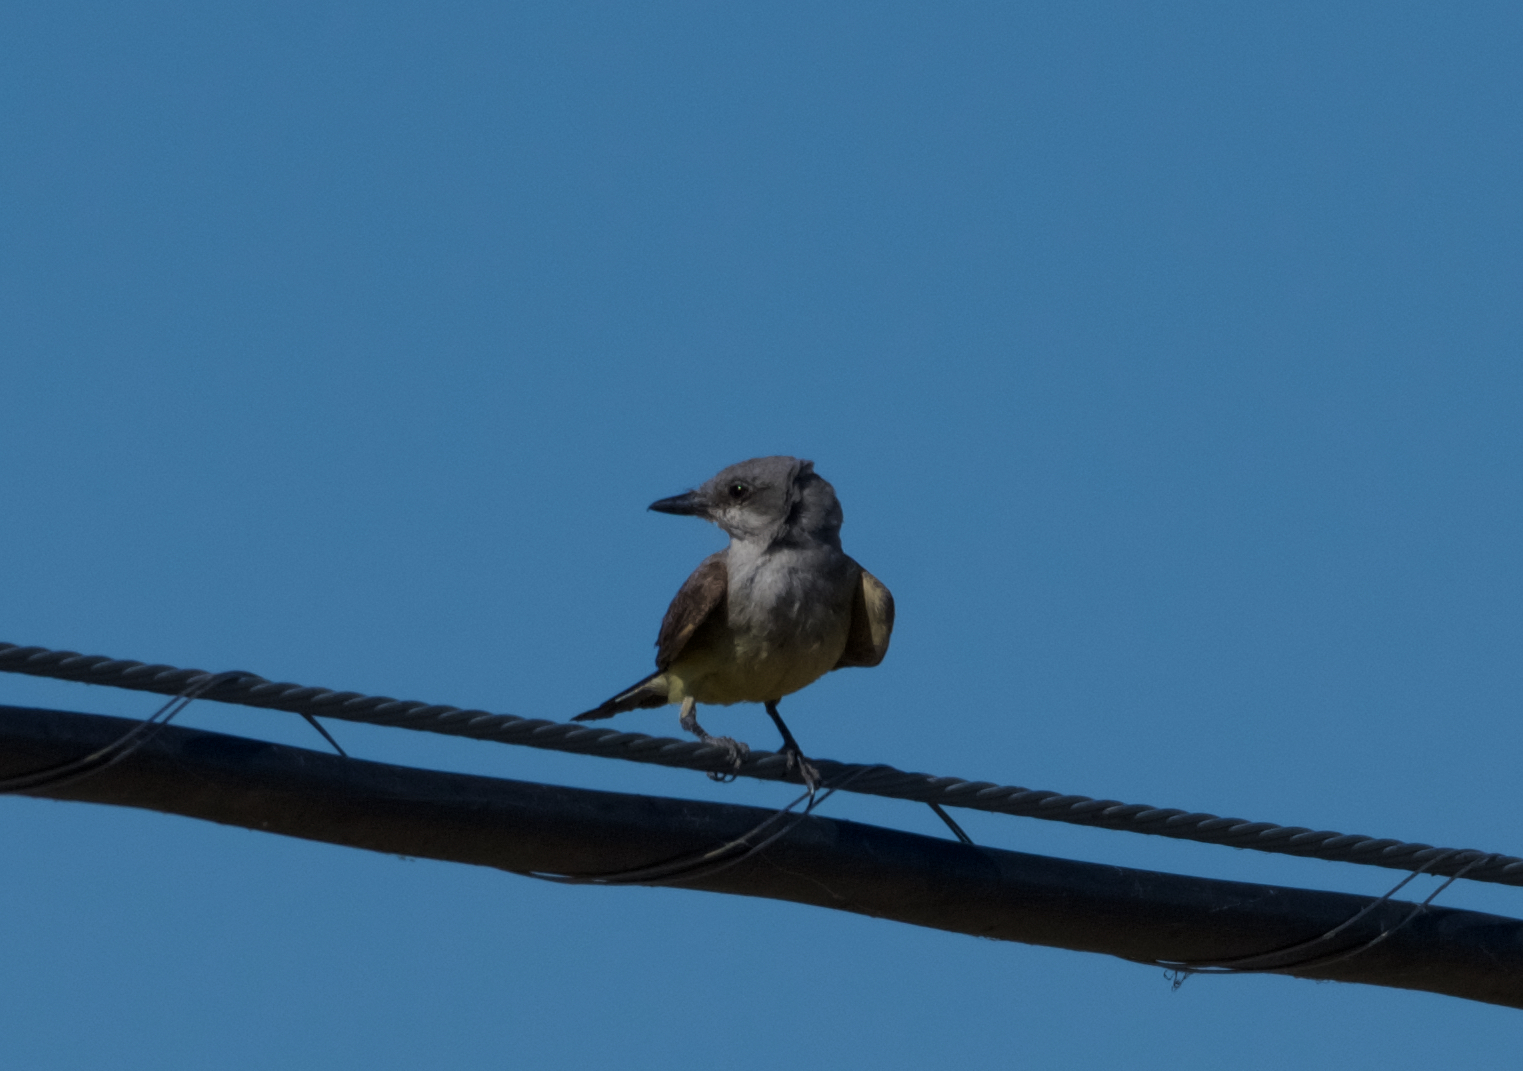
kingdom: Animalia
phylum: Chordata
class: Aves
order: Passeriformes
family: Tyrannidae
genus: Tyrannus
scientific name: Tyrannus verticalis
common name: Western kingbird
